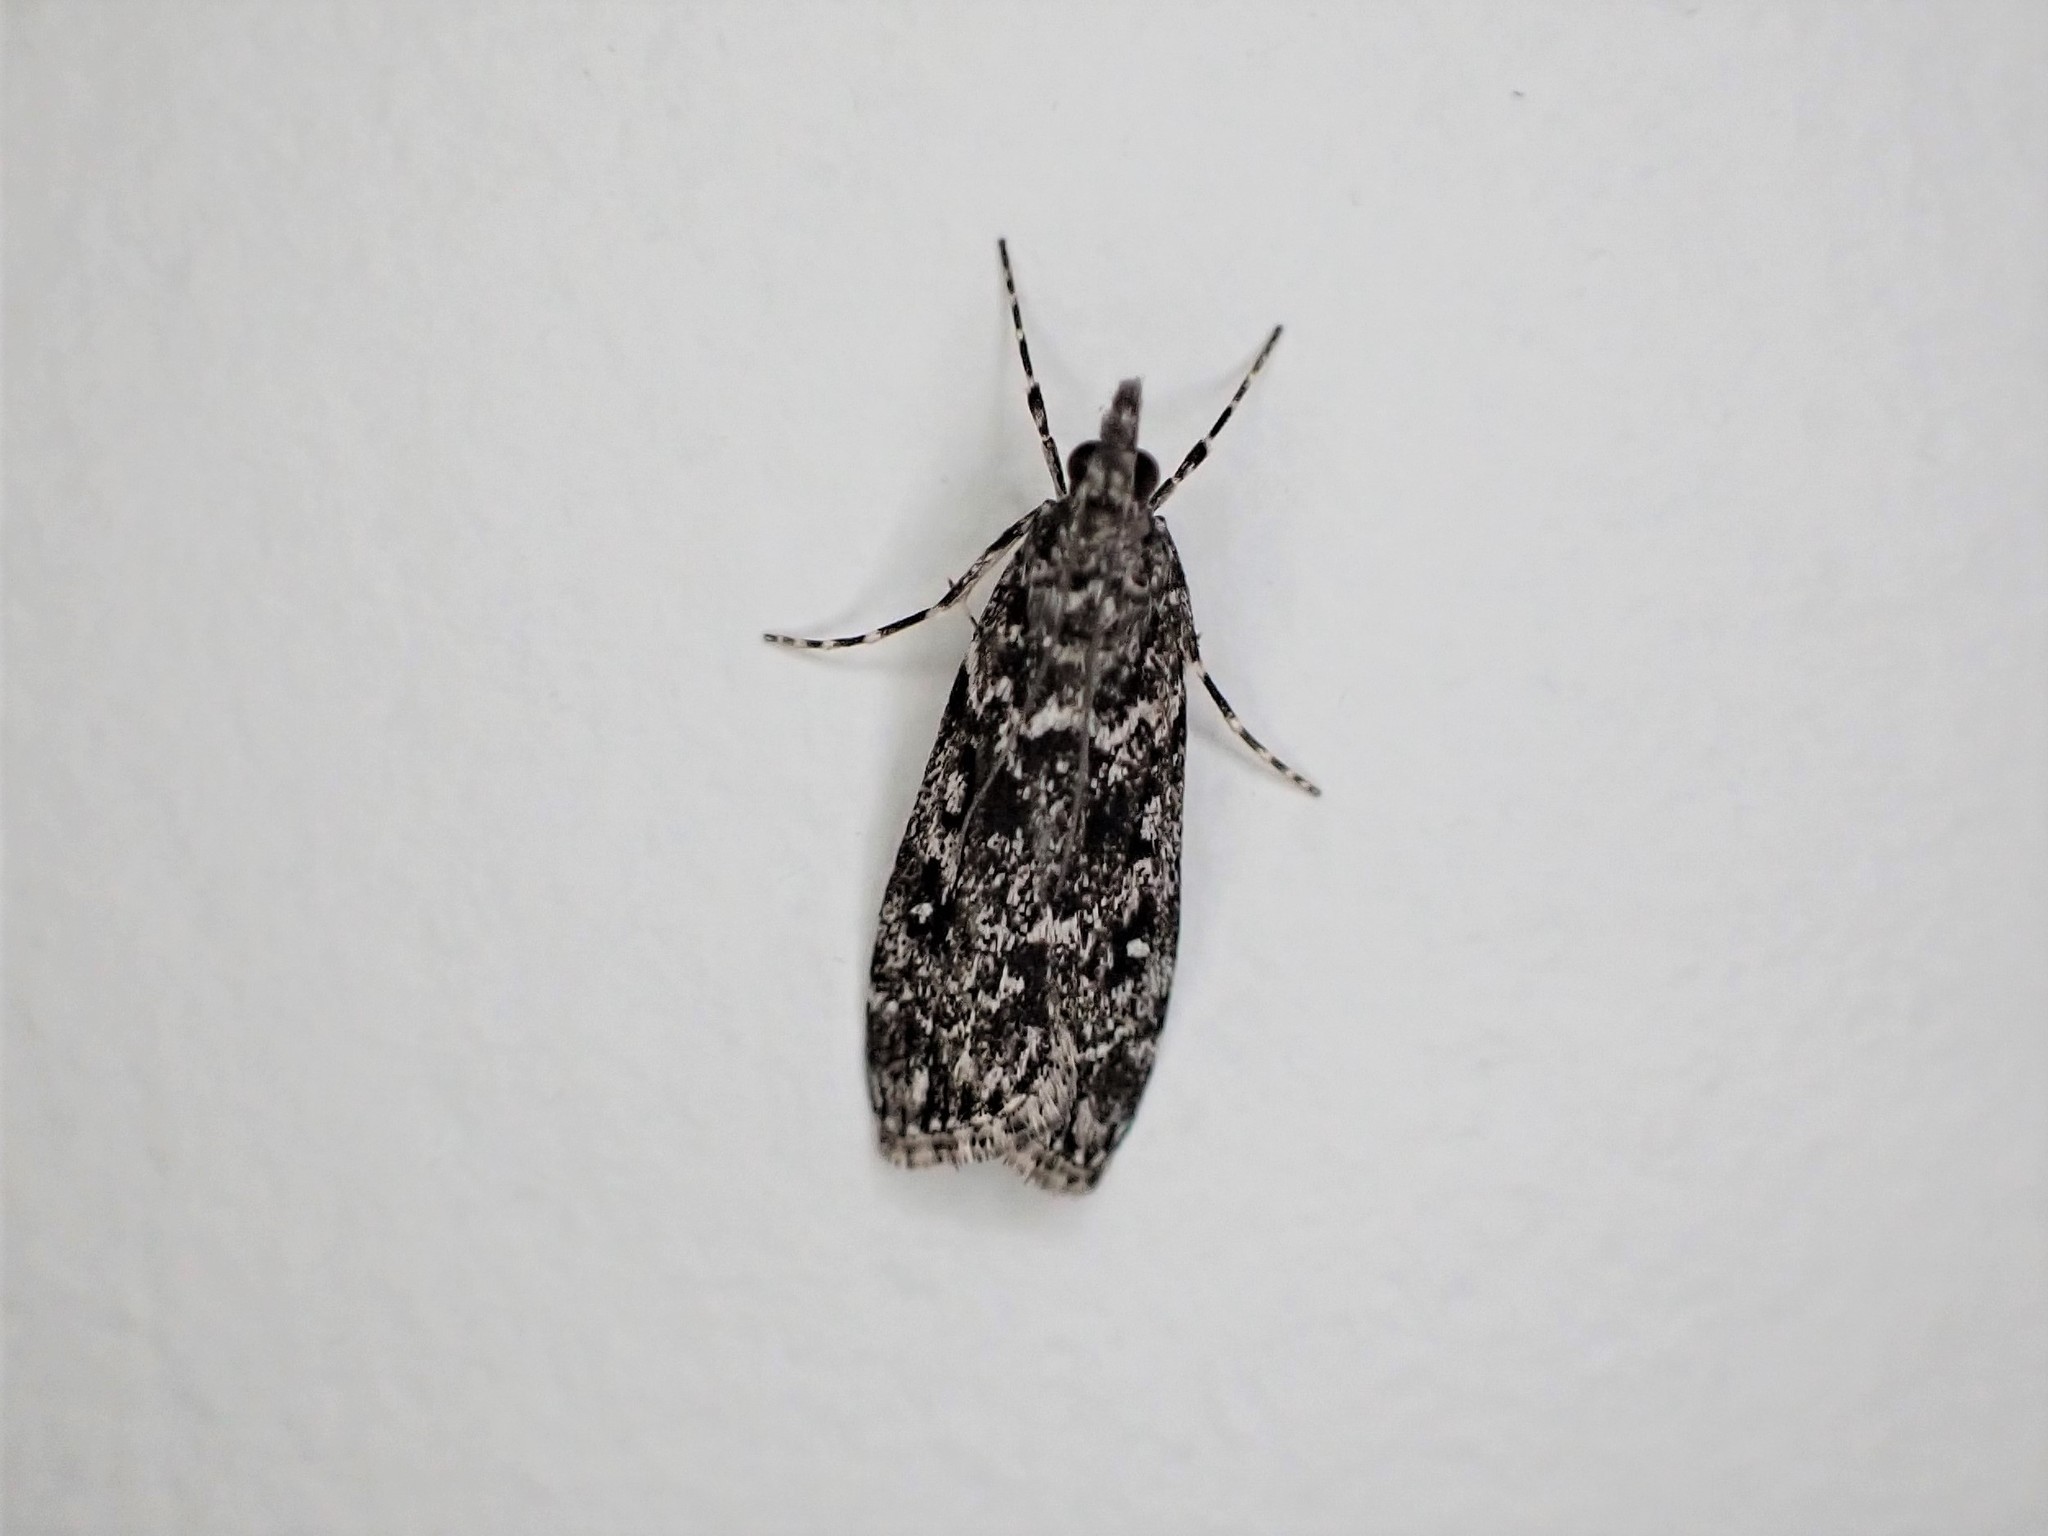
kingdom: Animalia
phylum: Arthropoda
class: Insecta
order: Lepidoptera
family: Crambidae
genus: Eudonia
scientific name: Eudonia philerga
